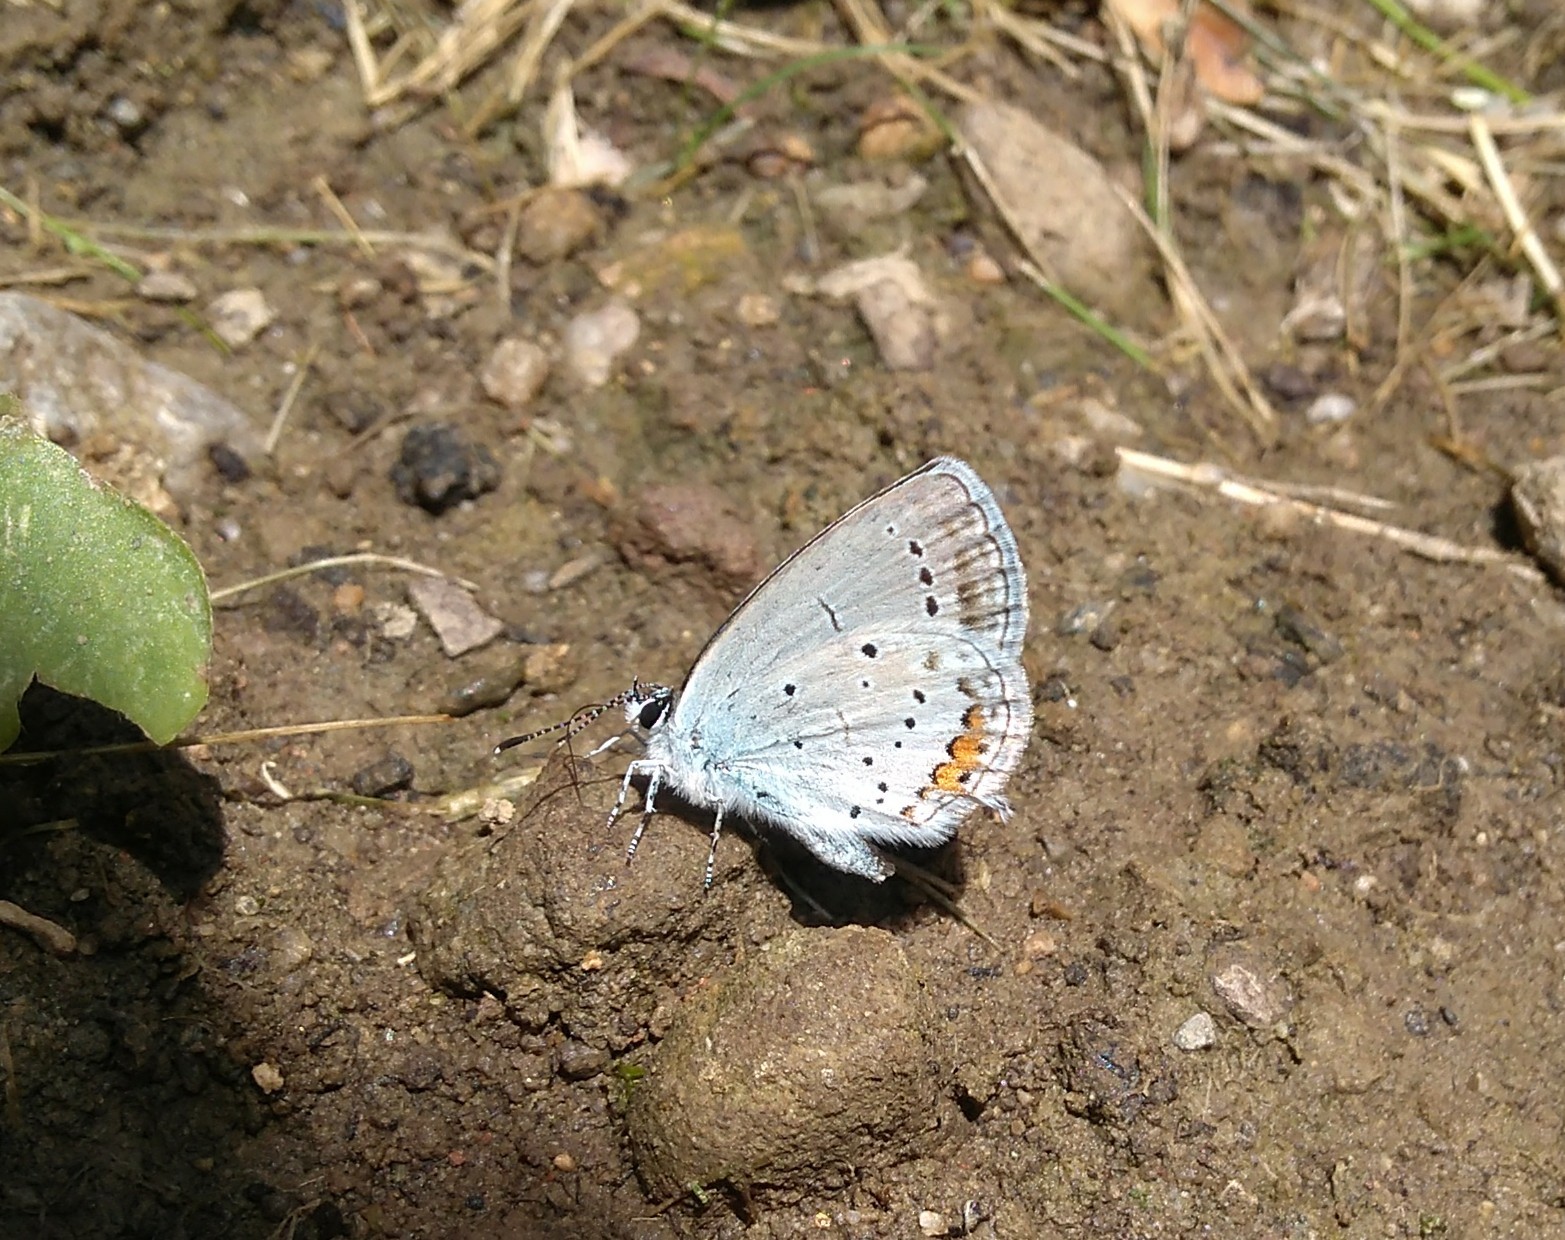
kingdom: Animalia
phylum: Arthropoda
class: Insecta
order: Lepidoptera
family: Lycaenidae
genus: Elkalyce
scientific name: Elkalyce argiades
